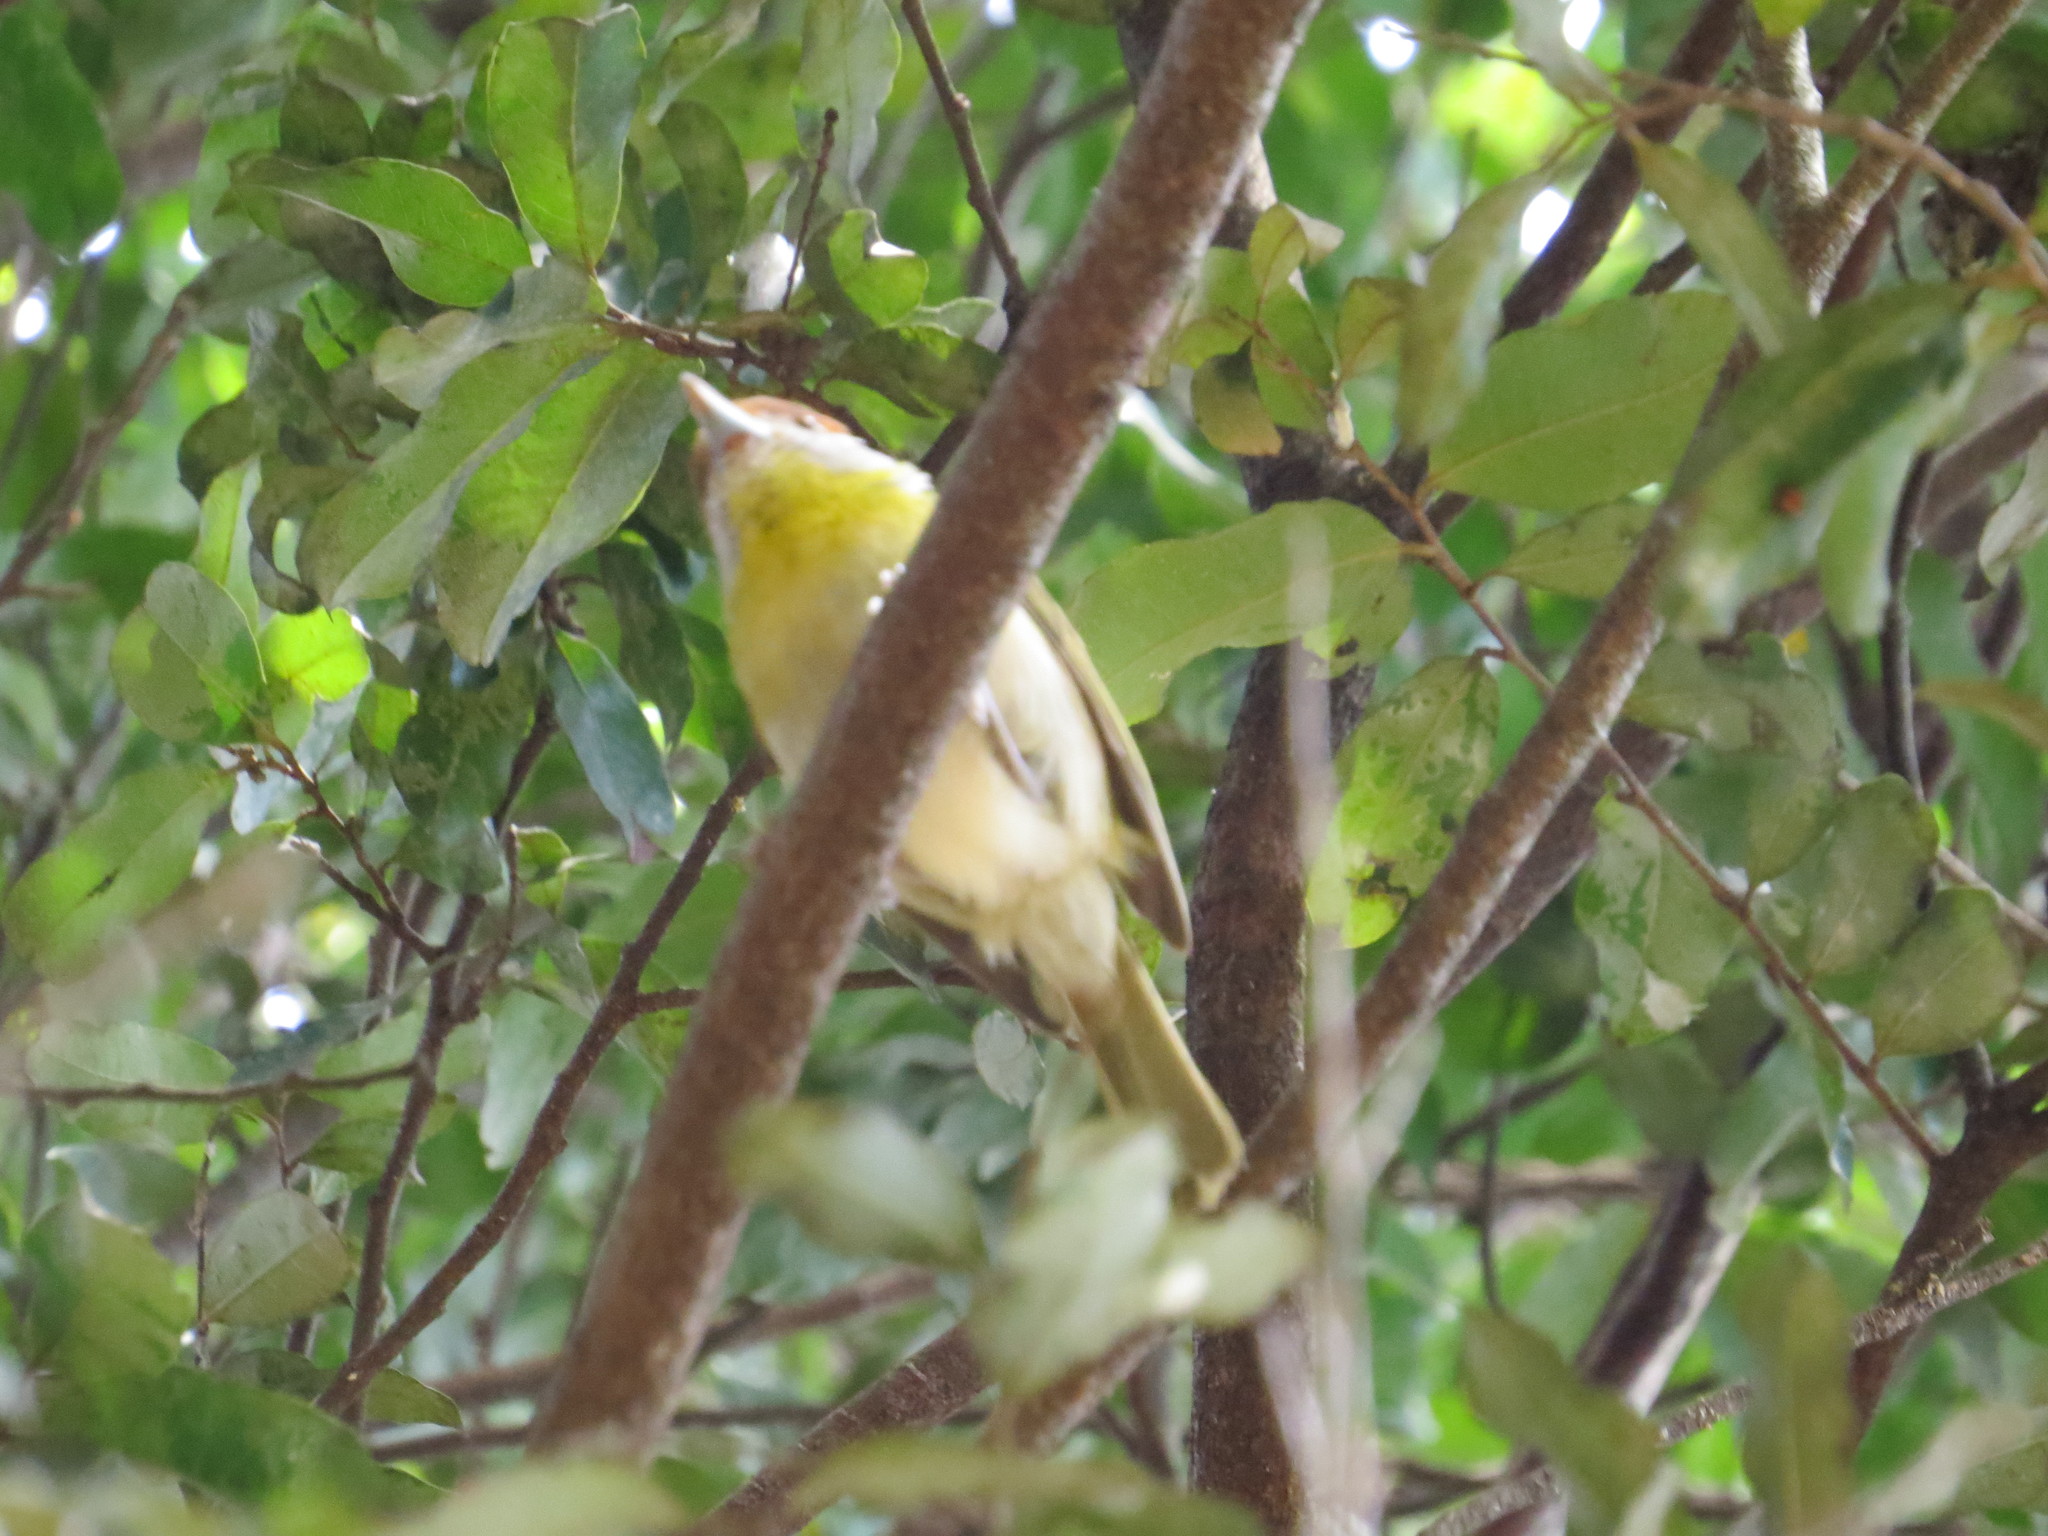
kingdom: Animalia
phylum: Chordata
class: Aves
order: Passeriformes
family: Vireonidae
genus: Cyclarhis
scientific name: Cyclarhis gujanensis
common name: Rufous-browed peppershrike
